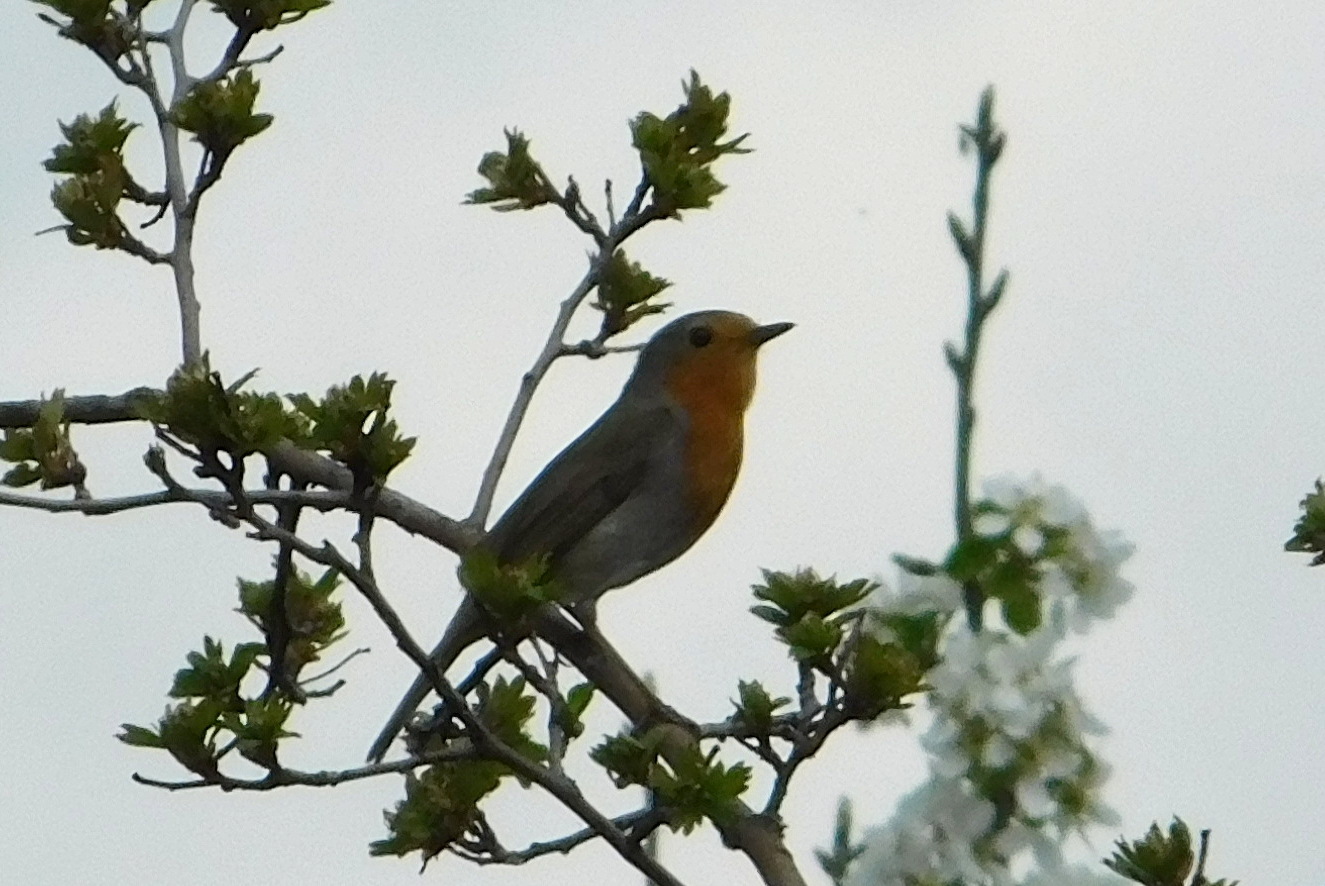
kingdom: Animalia
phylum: Chordata
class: Aves
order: Passeriformes
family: Muscicapidae
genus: Erithacus
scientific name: Erithacus rubecula
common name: European robin
